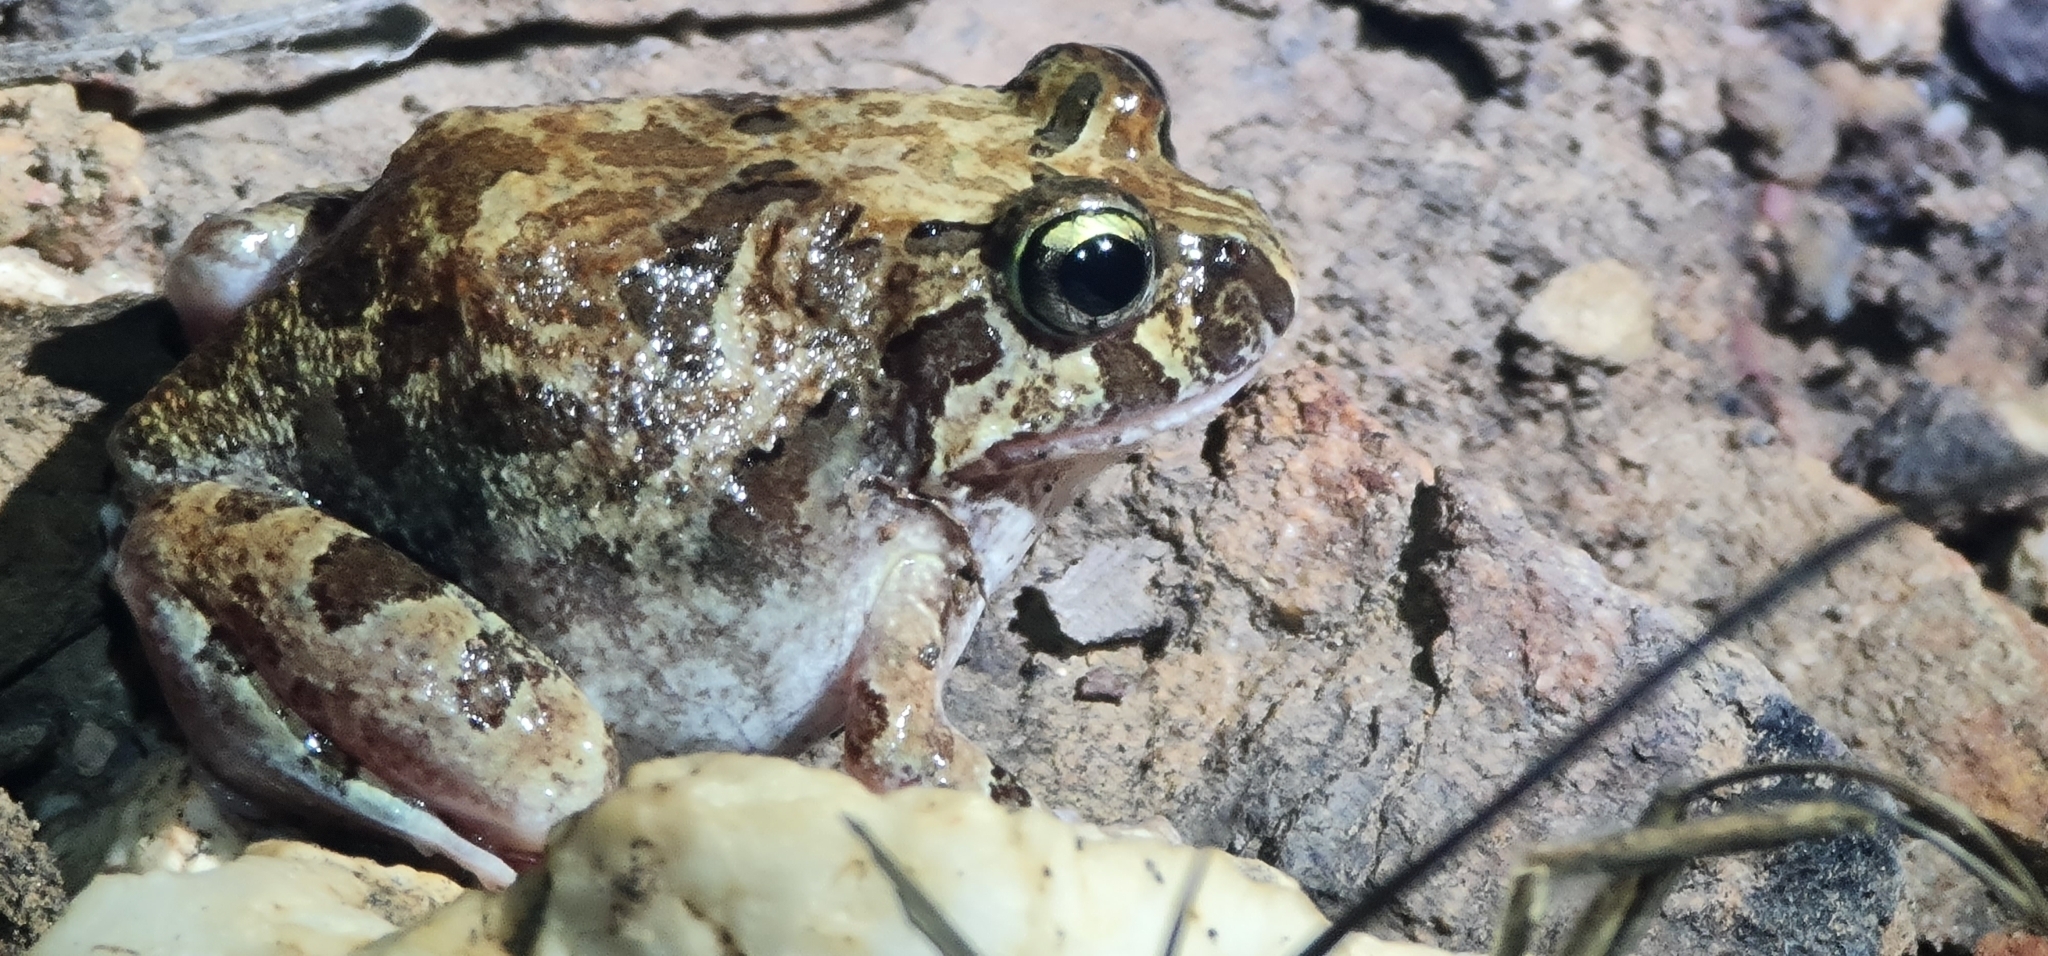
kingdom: Animalia
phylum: Chordata
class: Amphibia
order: Anura
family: Limnodynastidae
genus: Platyplectrum
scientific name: Platyplectrum ornatum
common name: Ornate burrowing frog
